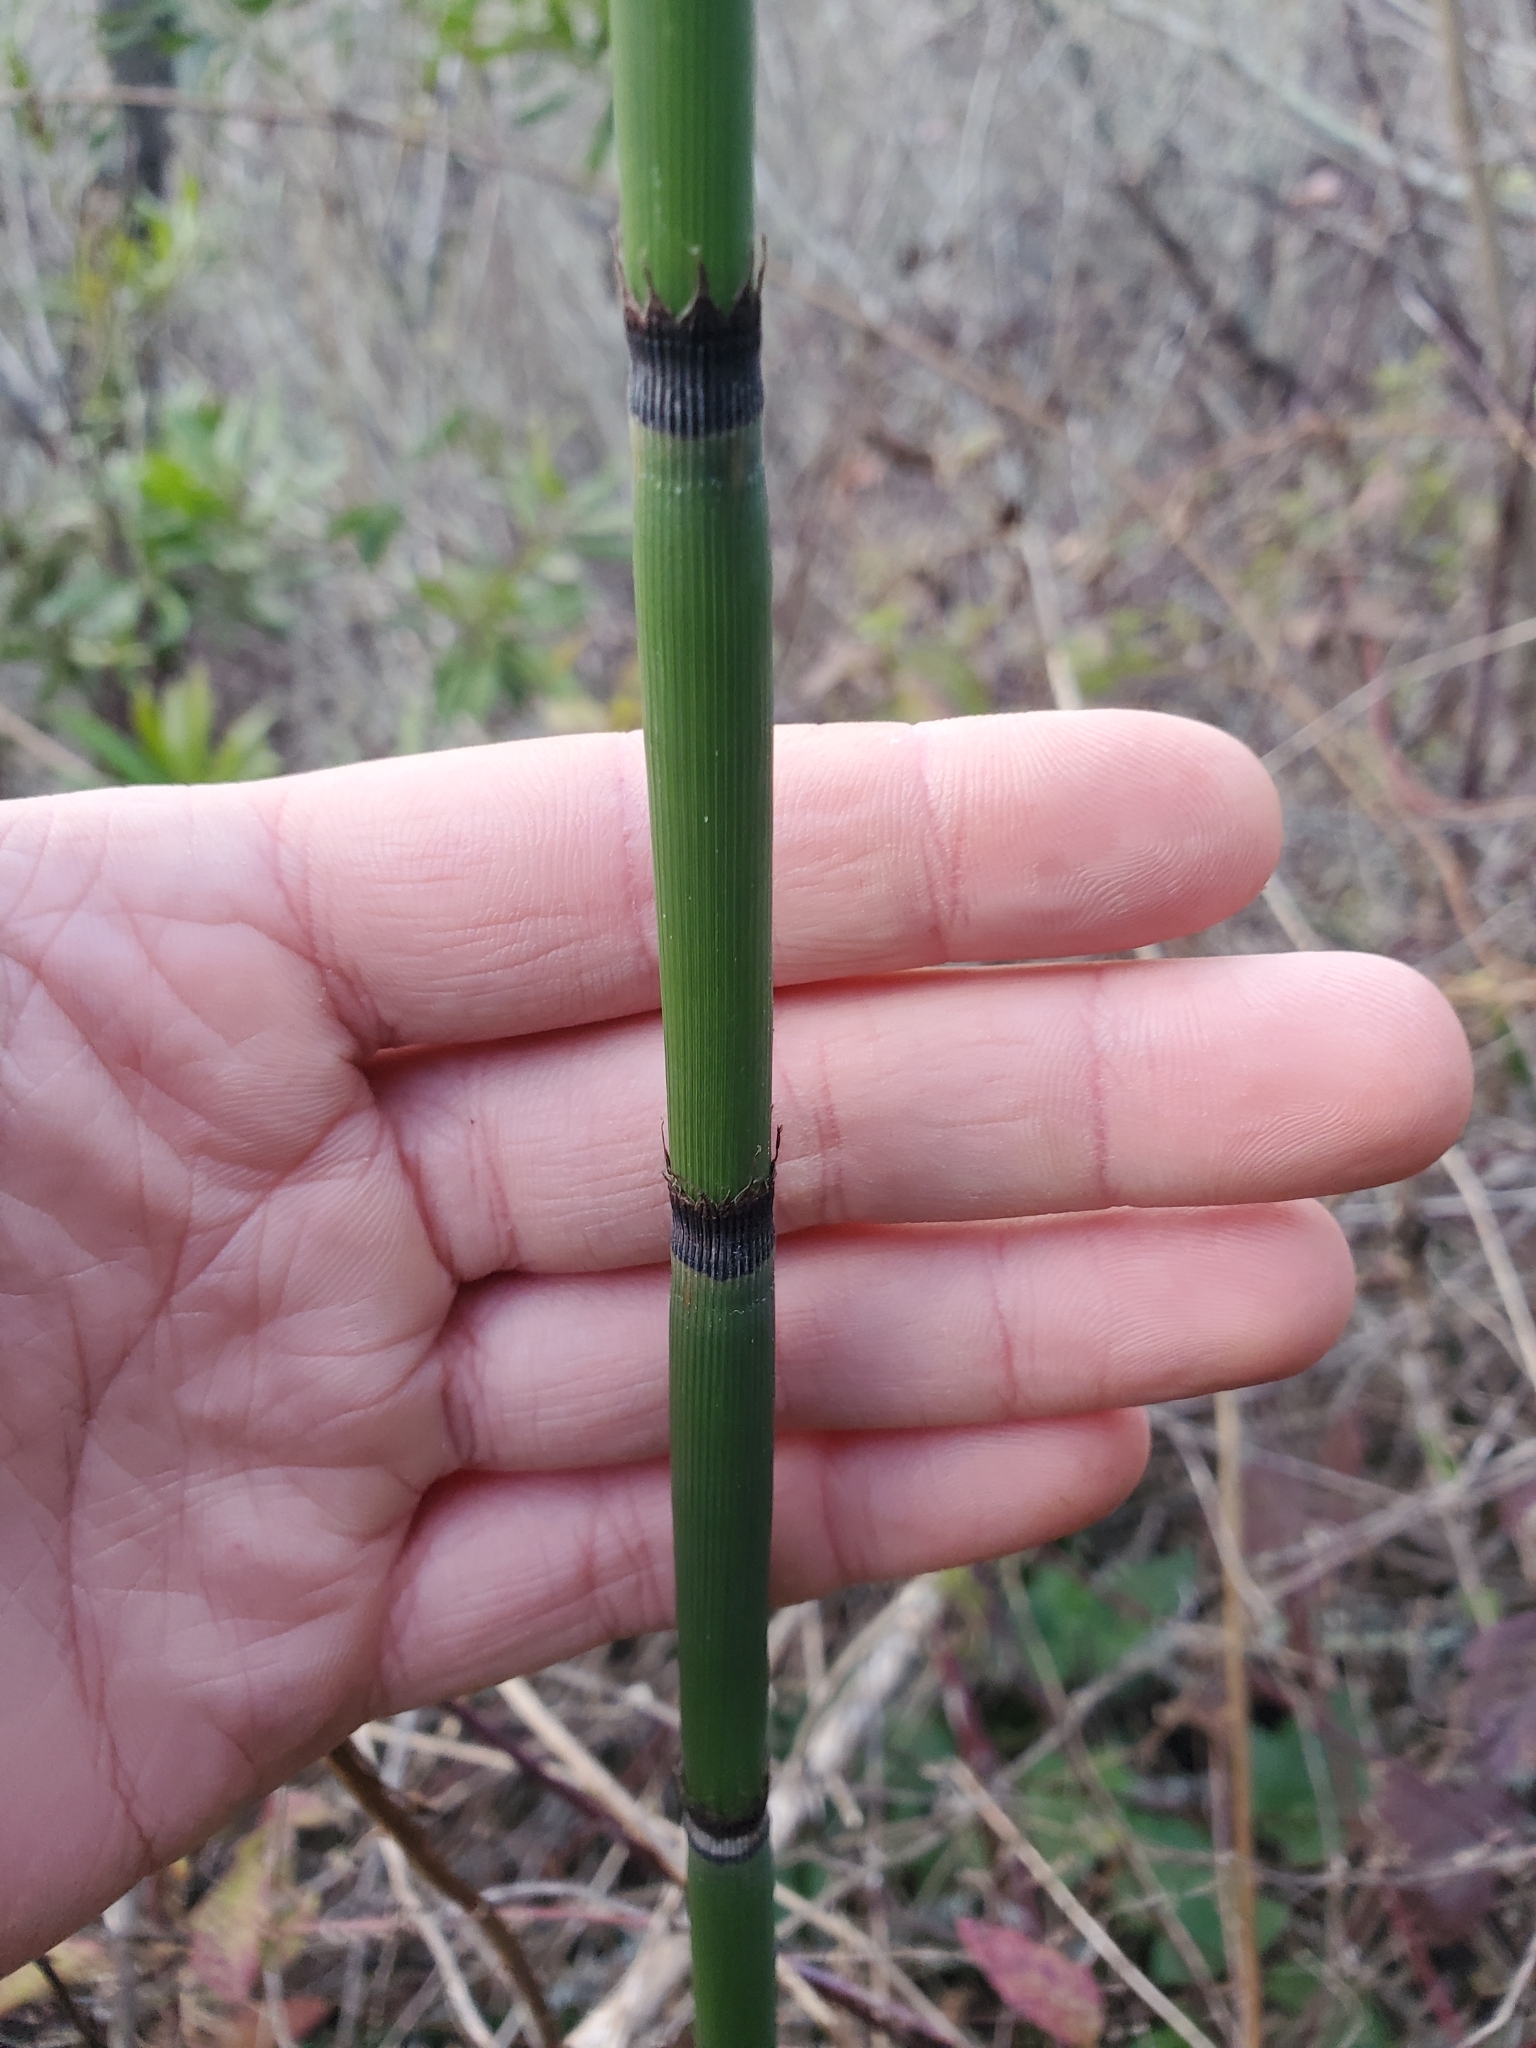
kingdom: Plantae
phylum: Tracheophyta
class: Polypodiopsida
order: Equisetales
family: Equisetaceae
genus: Equisetum
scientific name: Equisetum praealtum
